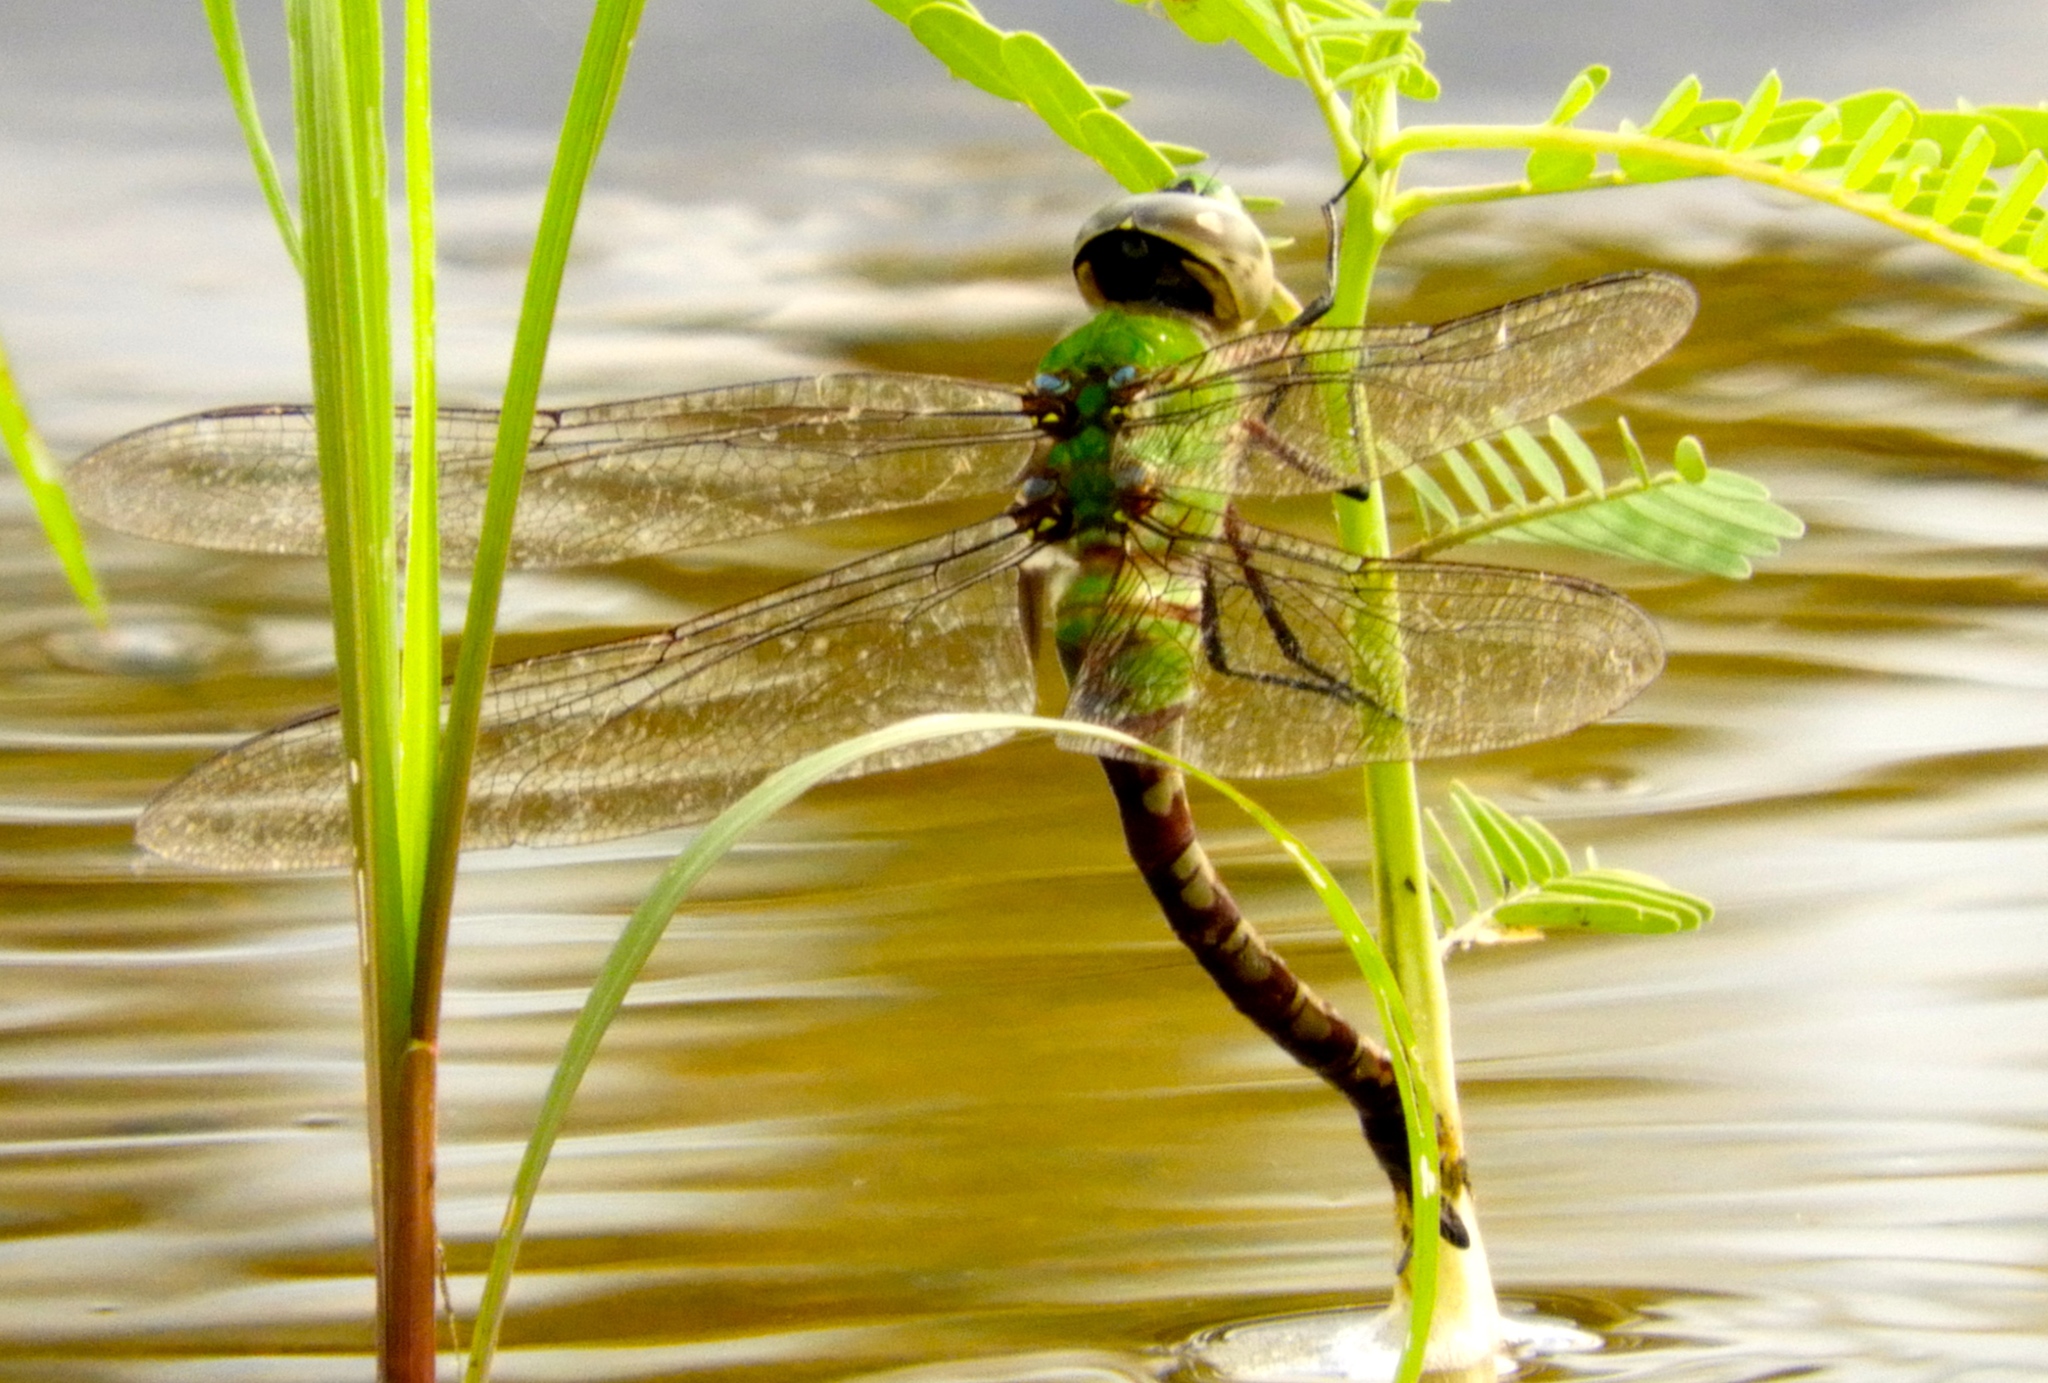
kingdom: Animalia
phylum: Arthropoda
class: Insecta
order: Odonata
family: Aeshnidae
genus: Anax
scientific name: Anax amazili
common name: Amazon darner
